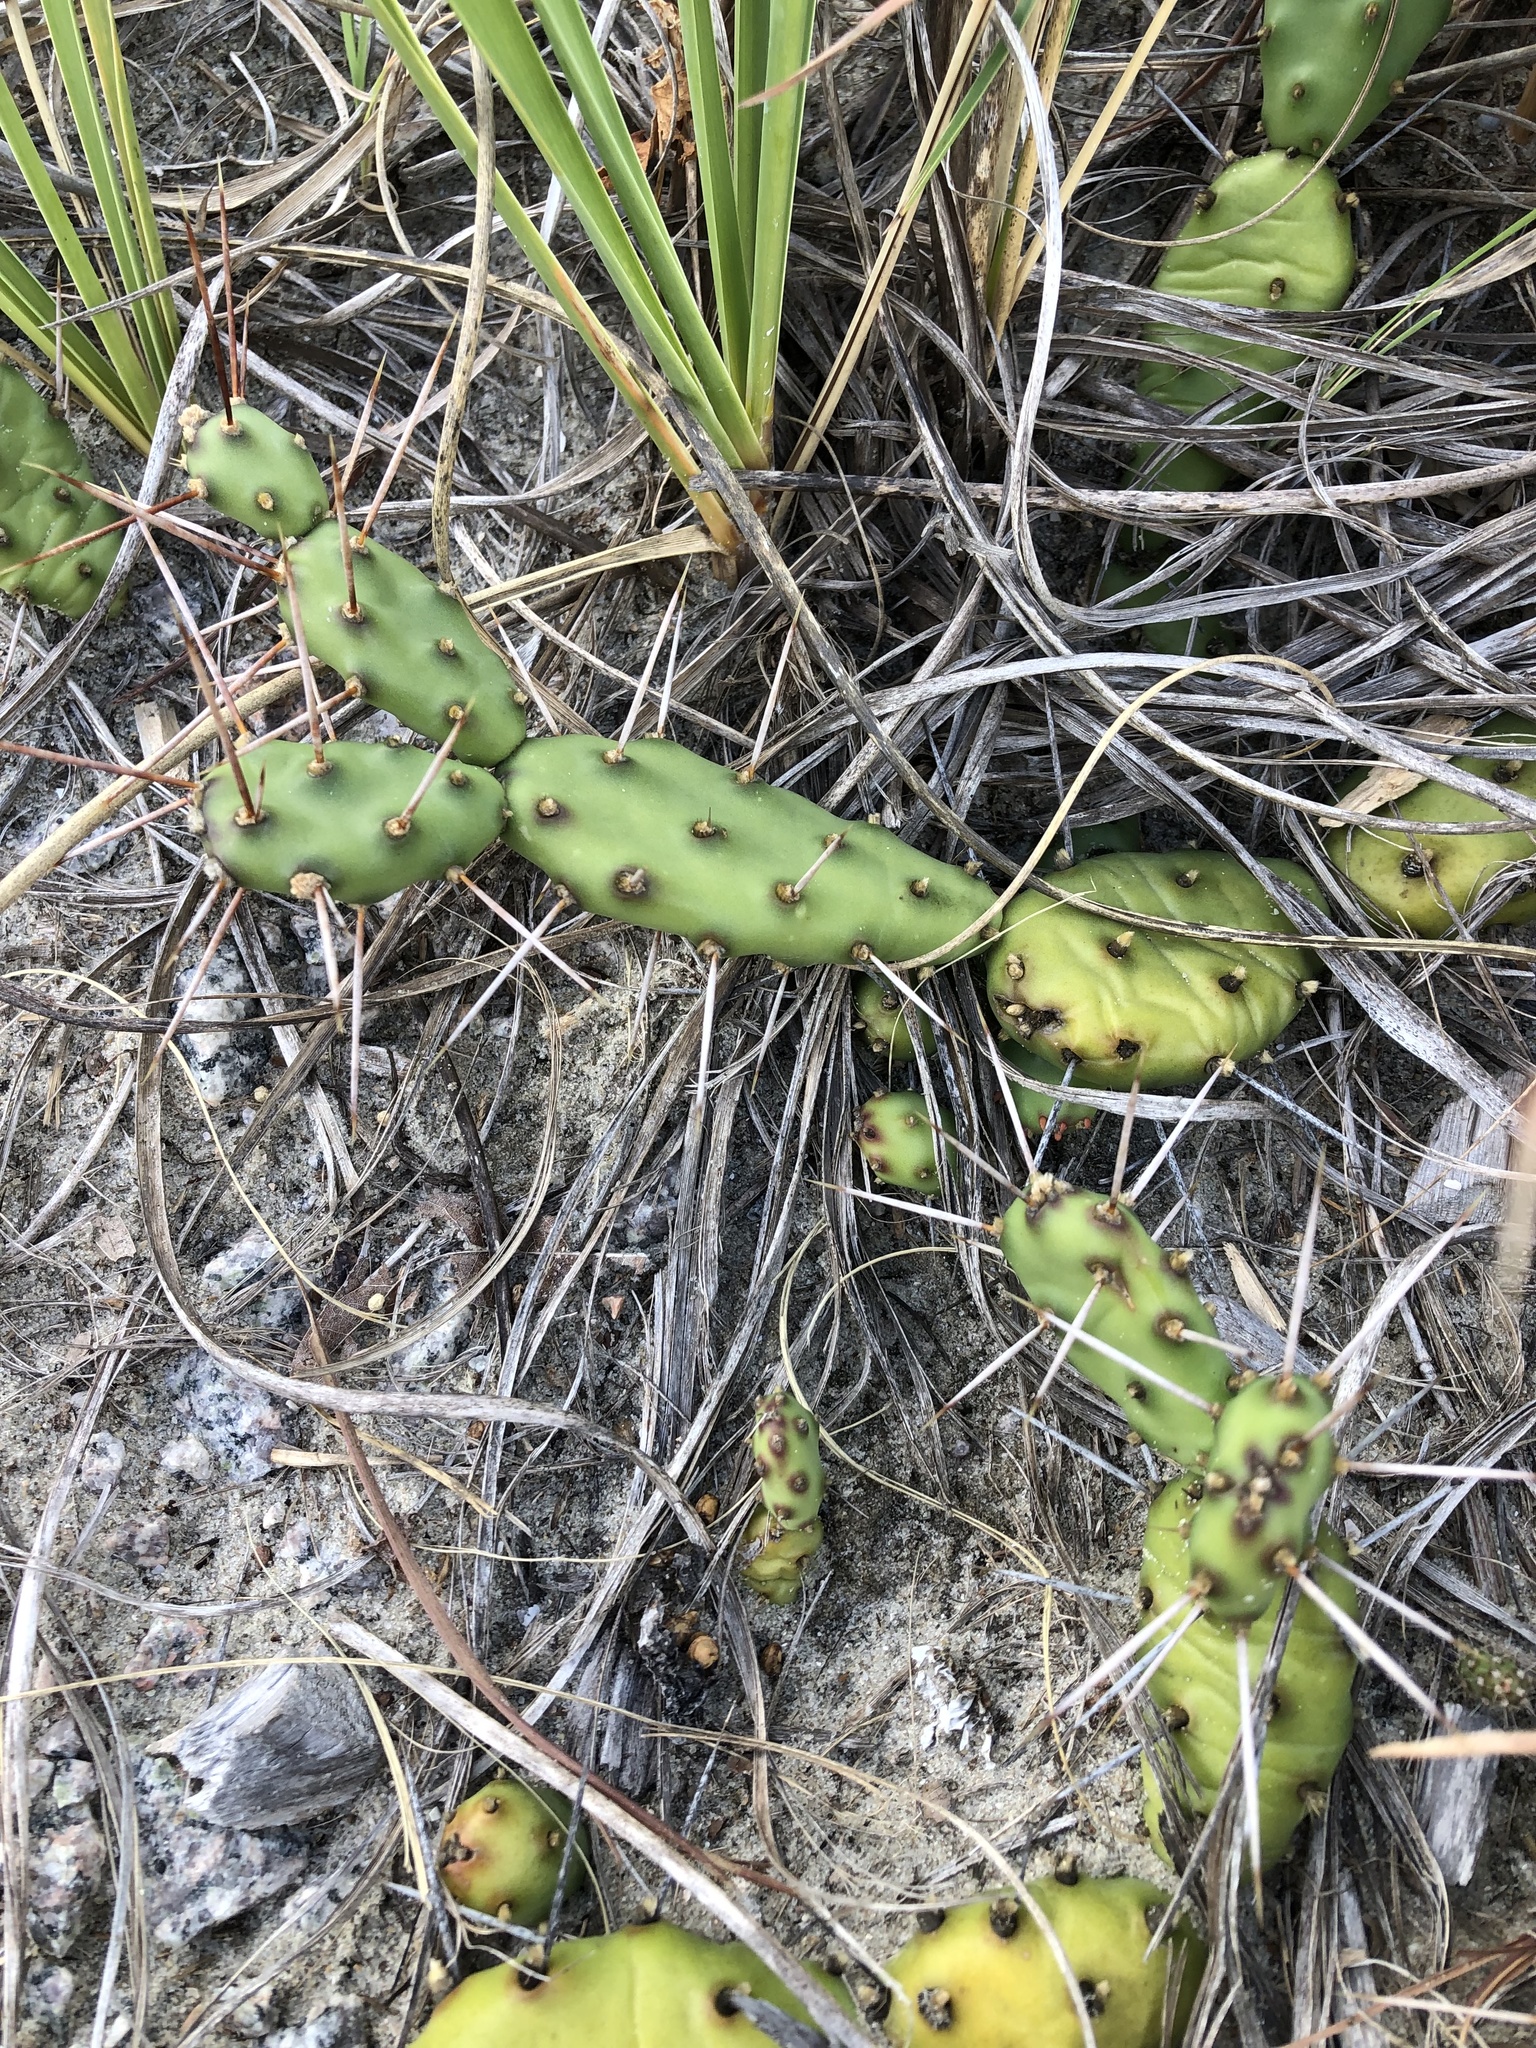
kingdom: Plantae
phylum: Tracheophyta
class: Magnoliopsida
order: Caryophyllales
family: Cactaceae
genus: Opuntia
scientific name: Opuntia drummondii
